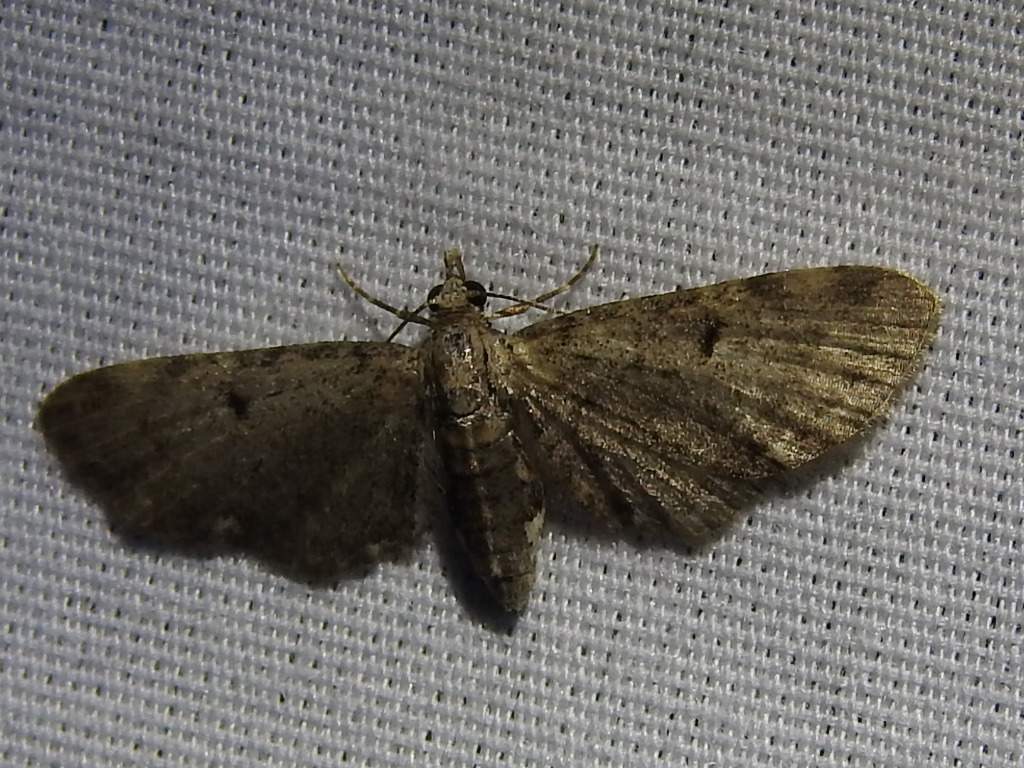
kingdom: Animalia
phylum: Arthropoda
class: Insecta
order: Lepidoptera
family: Geometridae
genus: Eupithecia
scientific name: Eupithecia miserulata
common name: Common eupithecia
